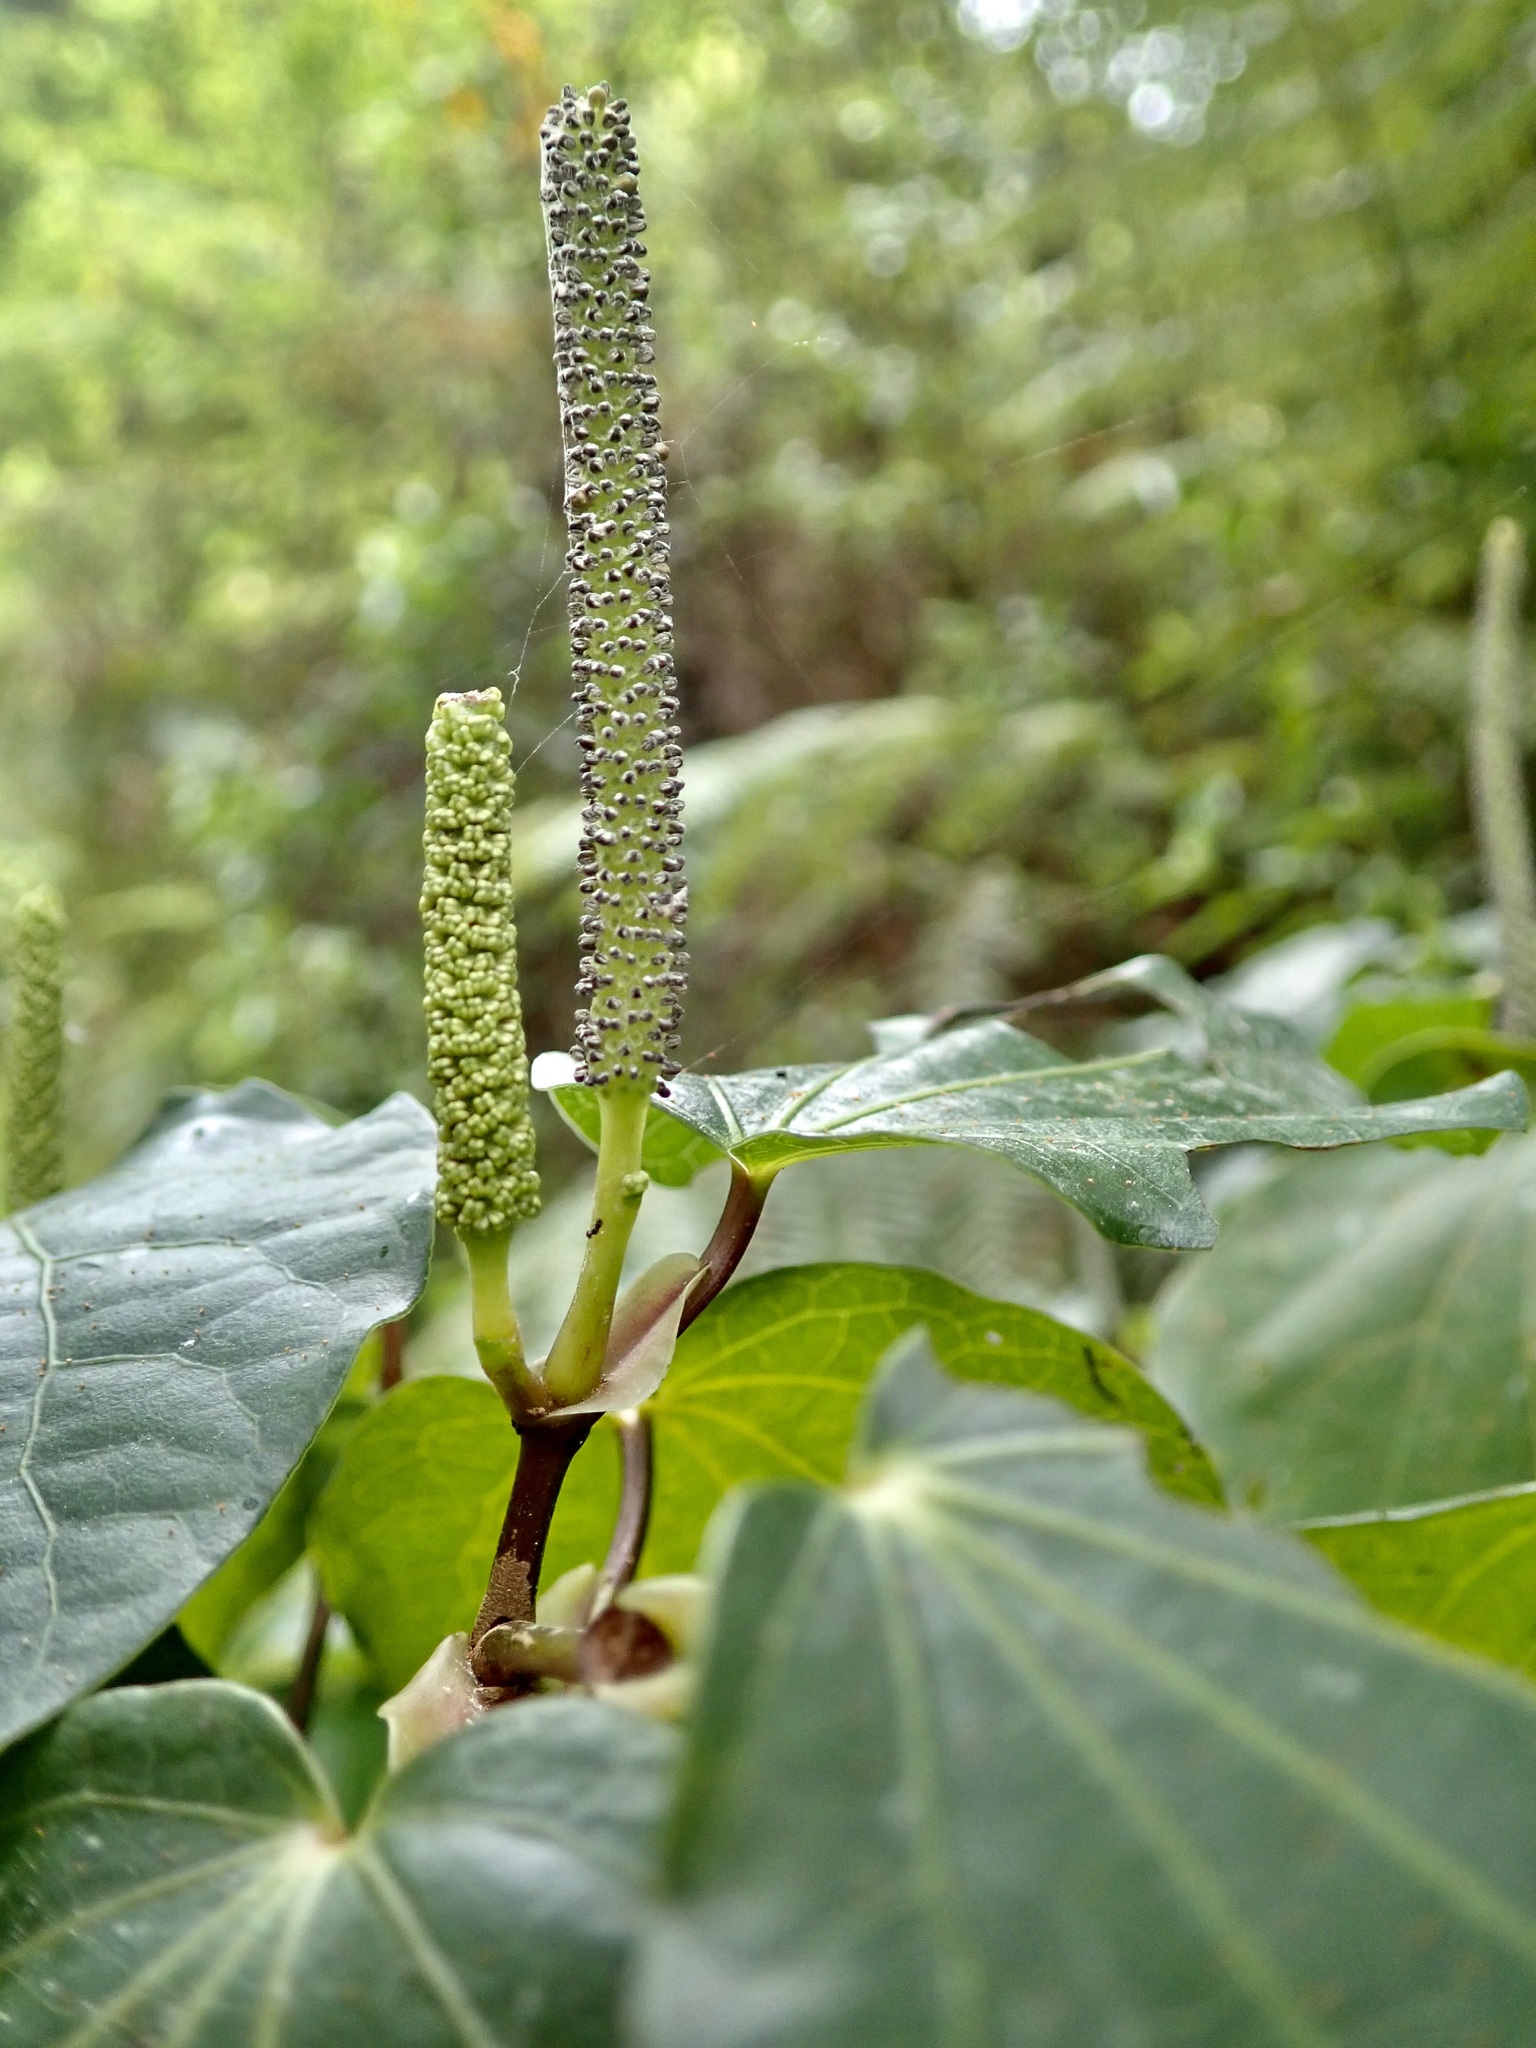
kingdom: Plantae
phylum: Tracheophyta
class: Magnoliopsida
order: Piperales
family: Piperaceae
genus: Macropiper
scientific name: Macropiper excelsum
